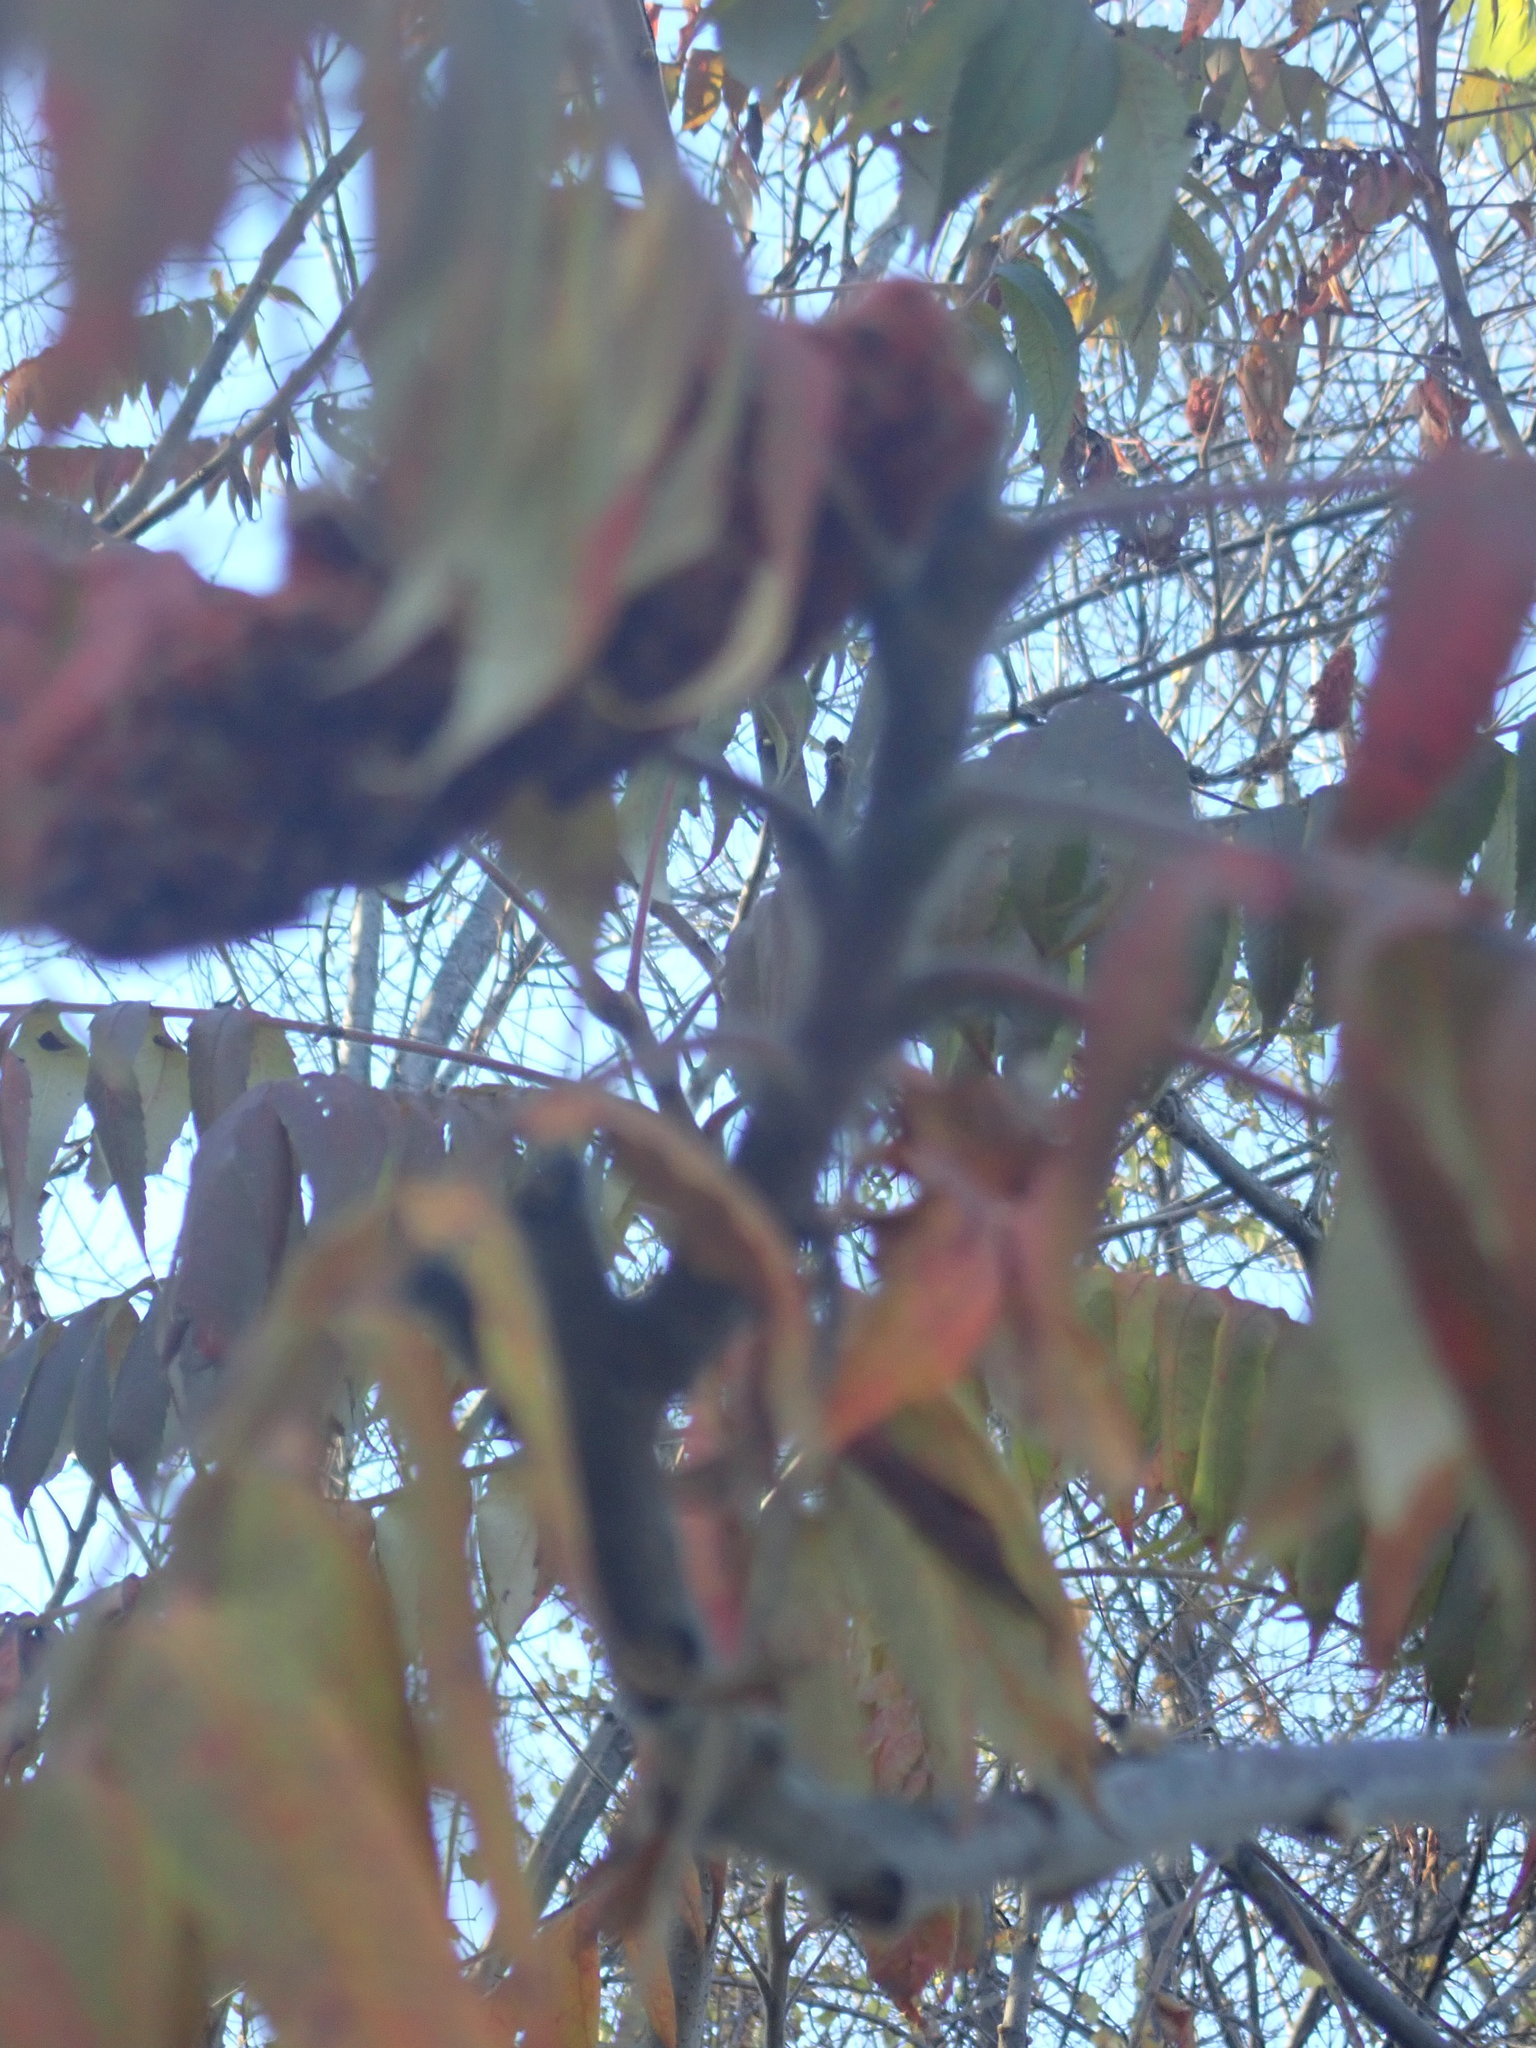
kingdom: Plantae
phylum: Tracheophyta
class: Magnoliopsida
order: Sapindales
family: Anacardiaceae
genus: Rhus
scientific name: Rhus typhina
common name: Staghorn sumac
